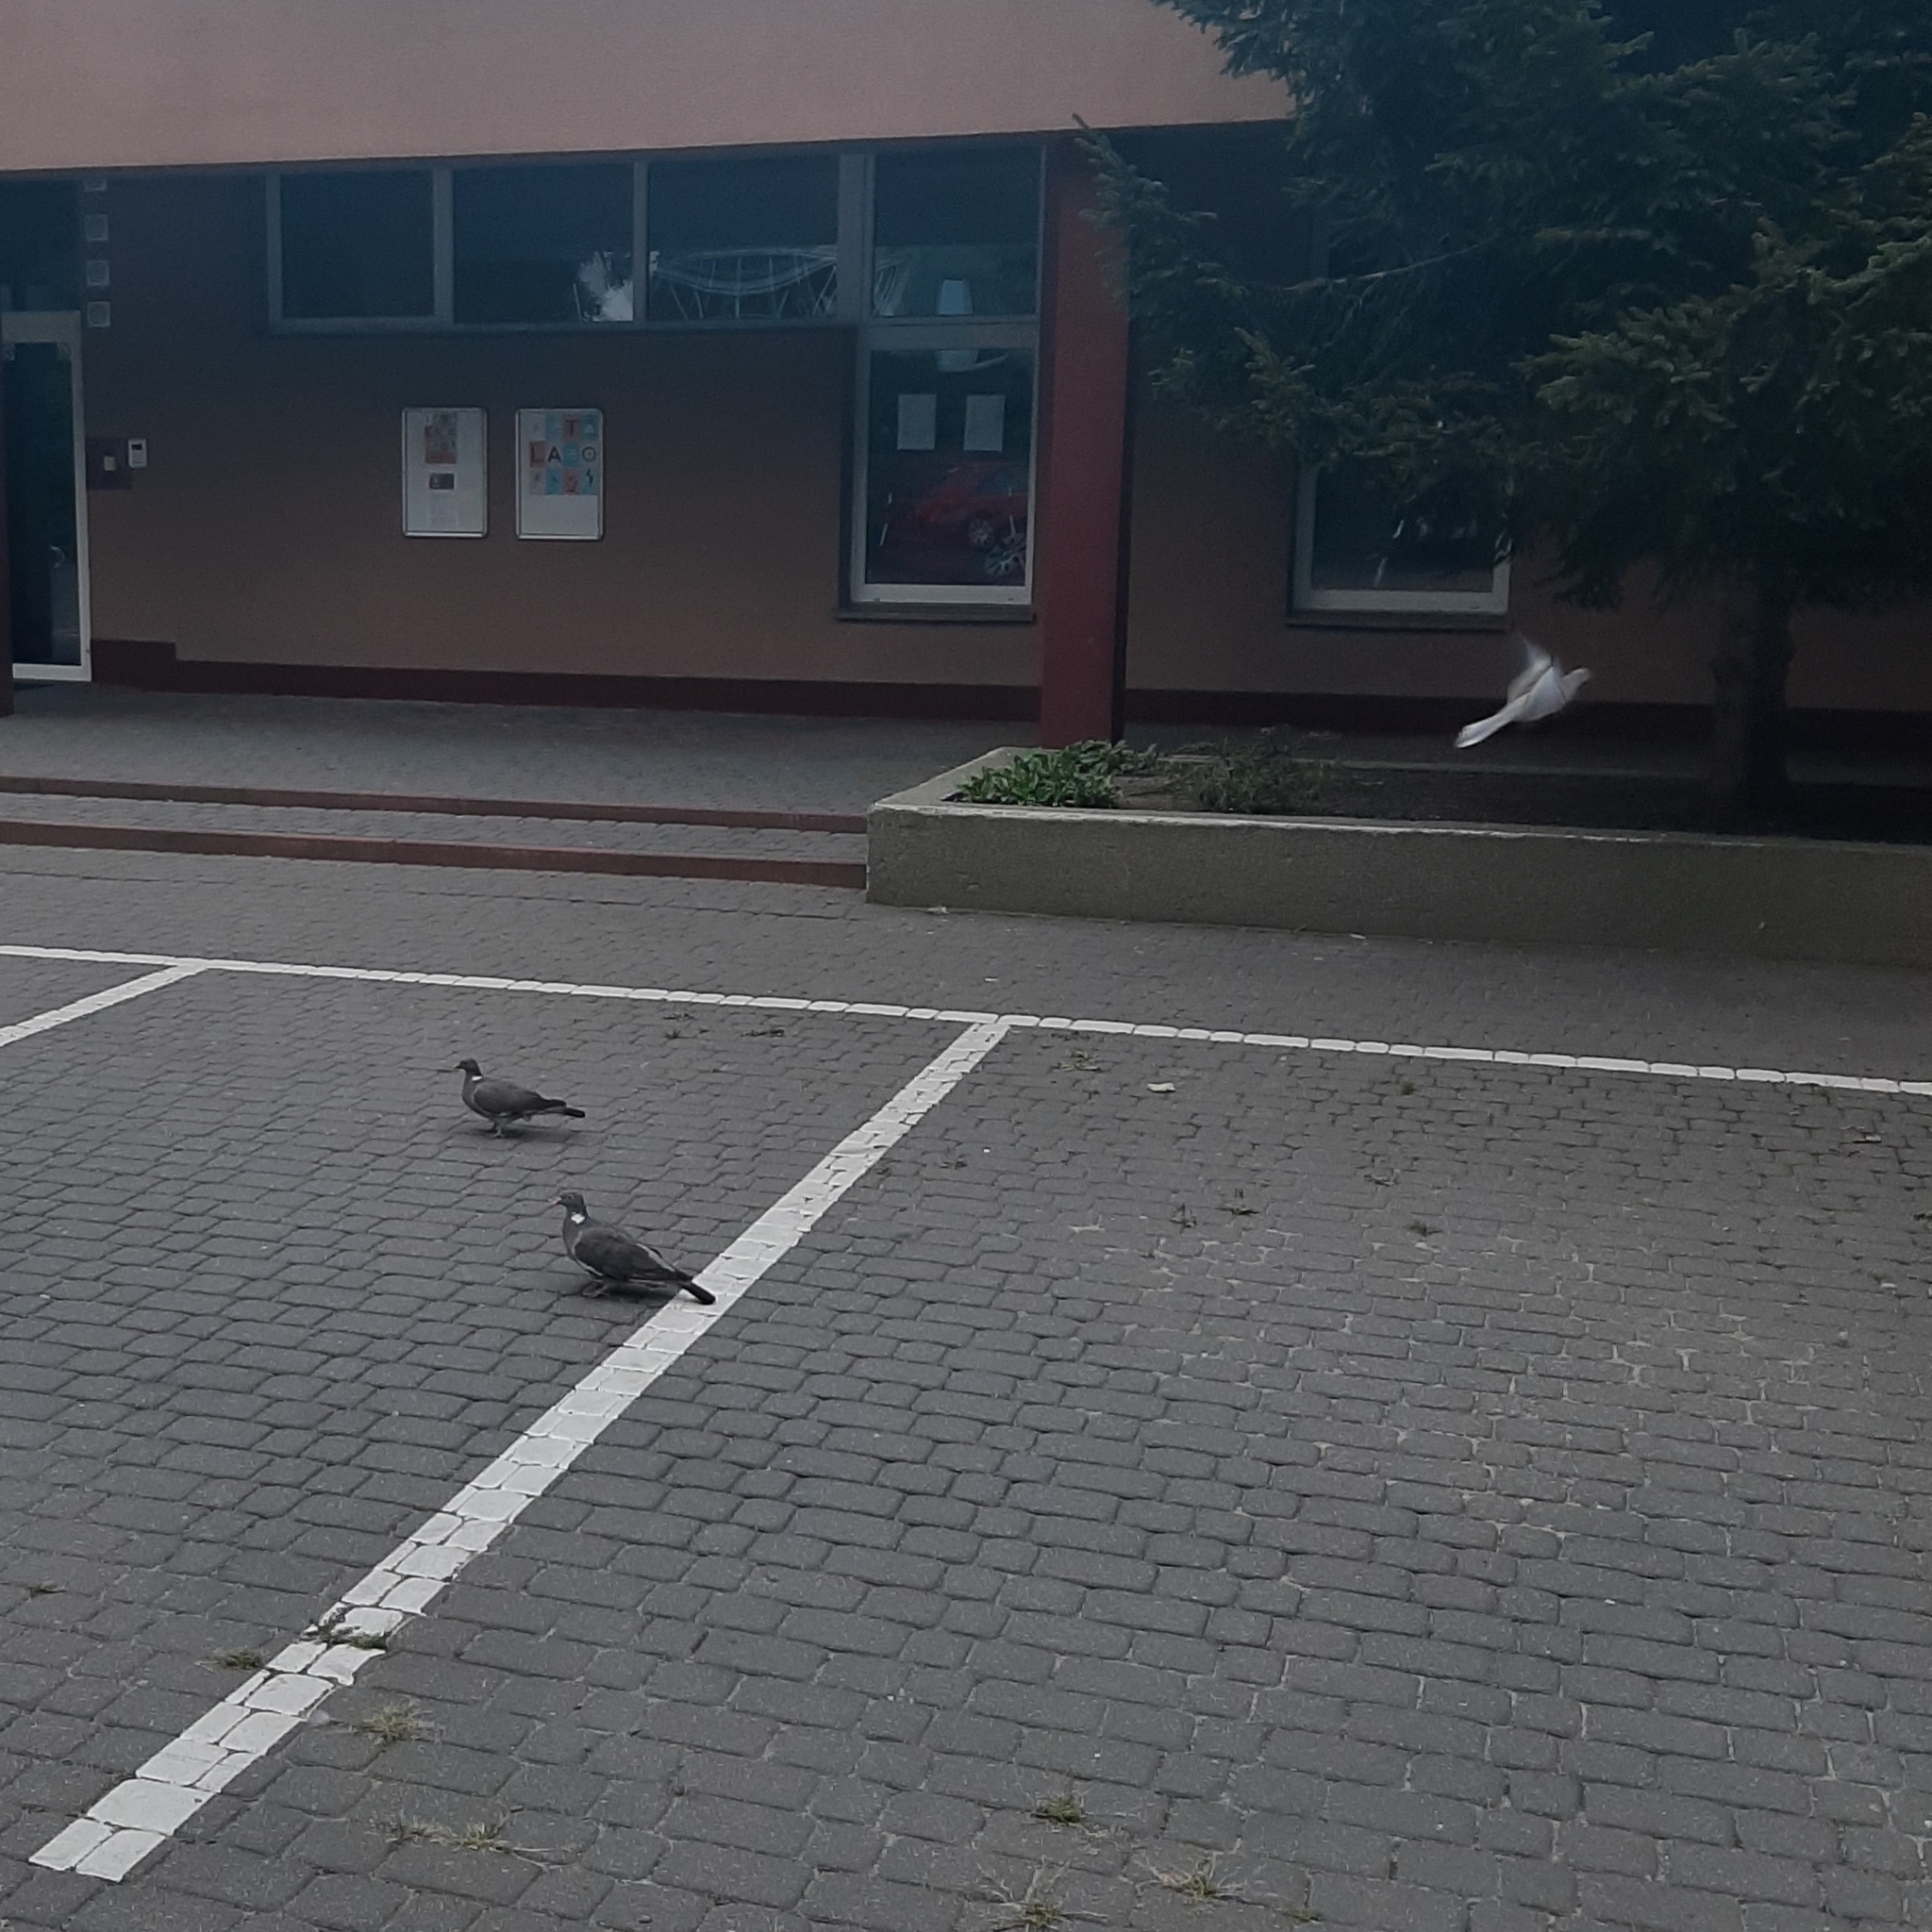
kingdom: Animalia
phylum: Chordata
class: Aves
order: Columbiformes
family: Columbidae
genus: Columba
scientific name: Columba palumbus
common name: Common wood pigeon
